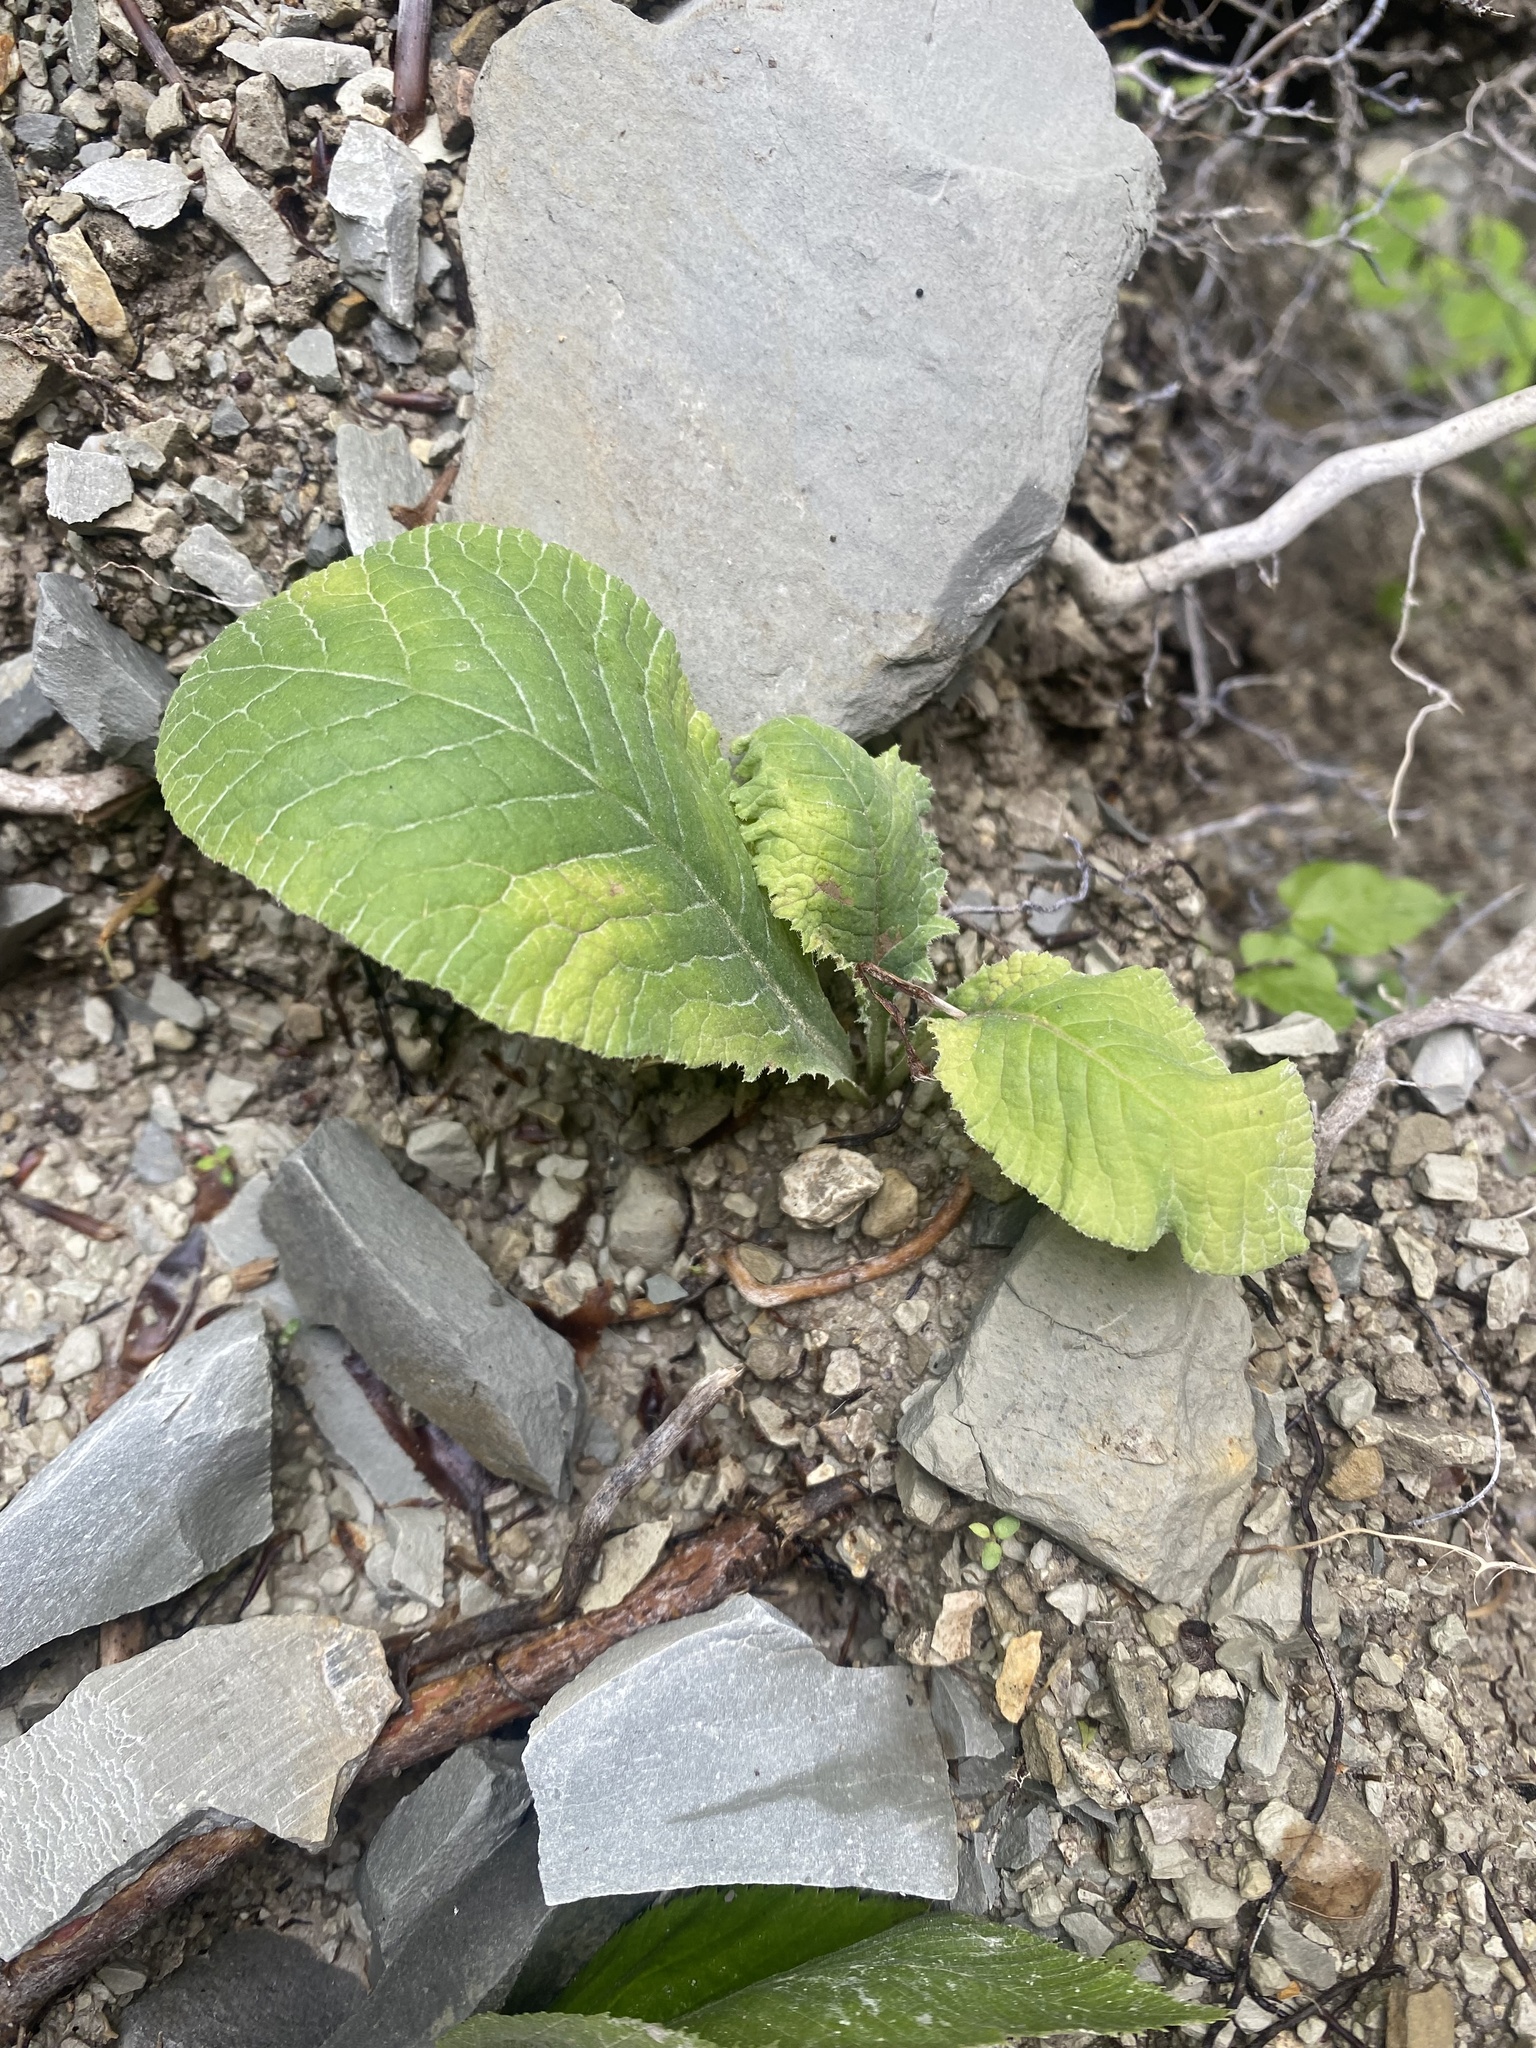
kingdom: Plantae
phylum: Tracheophyta
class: Magnoliopsida
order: Ericales
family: Primulaceae
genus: Primula
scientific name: Primula vulgaris
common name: Primrose
